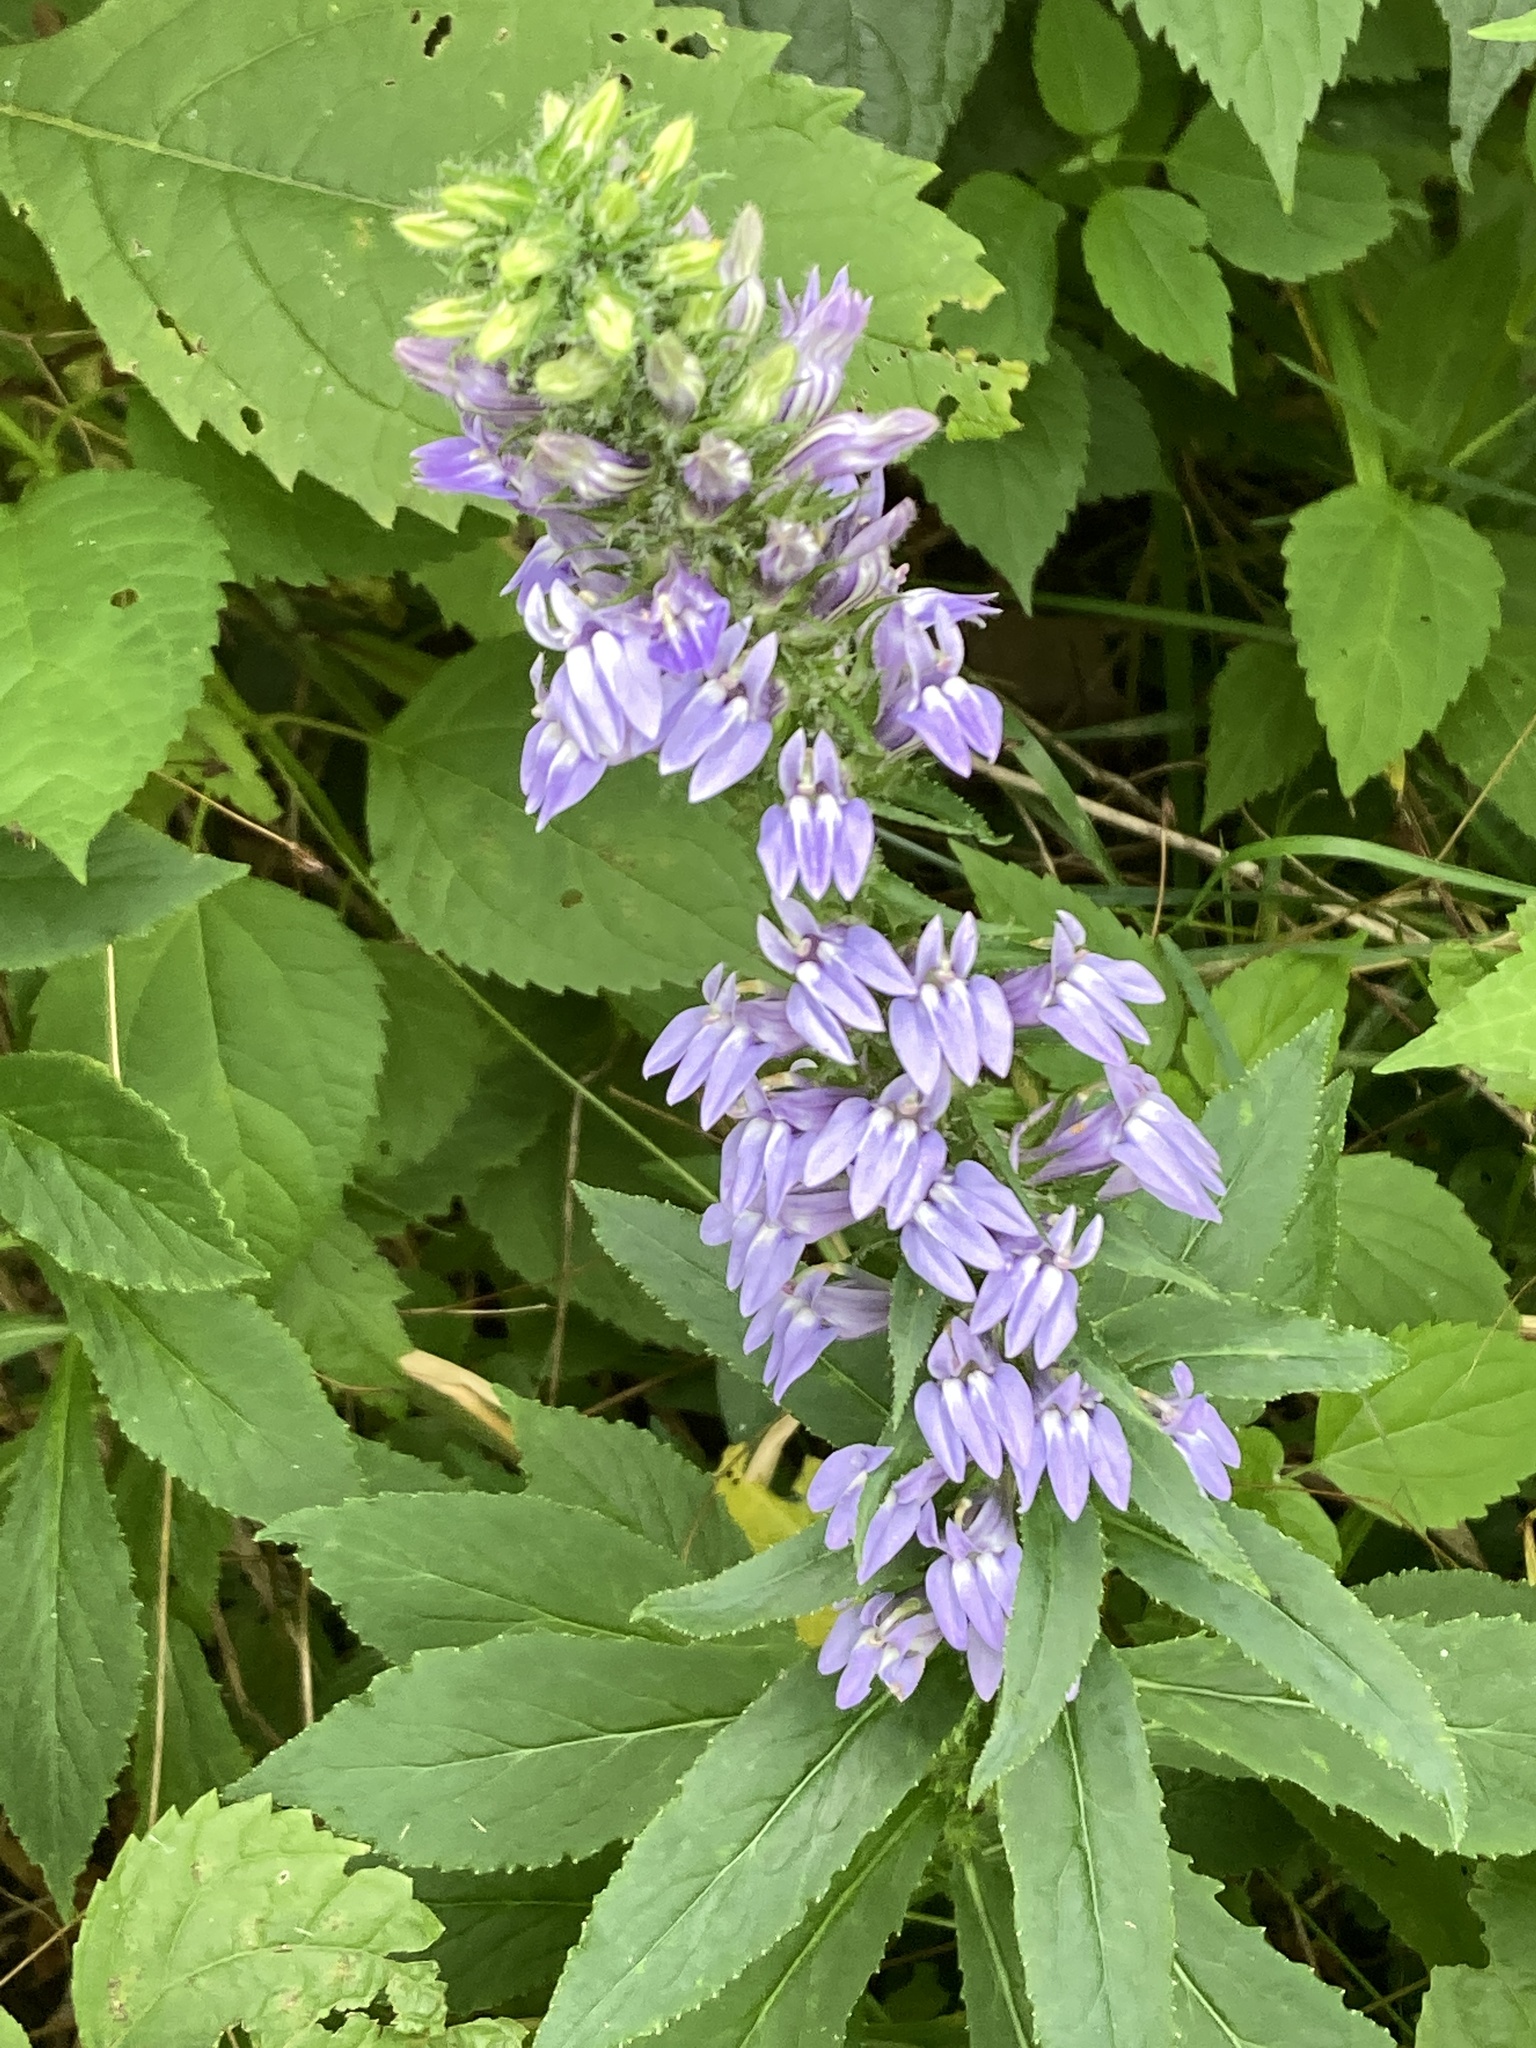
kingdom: Plantae
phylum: Tracheophyta
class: Magnoliopsida
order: Asterales
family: Campanulaceae
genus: Lobelia
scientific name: Lobelia siphilitica
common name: Great lobelia
